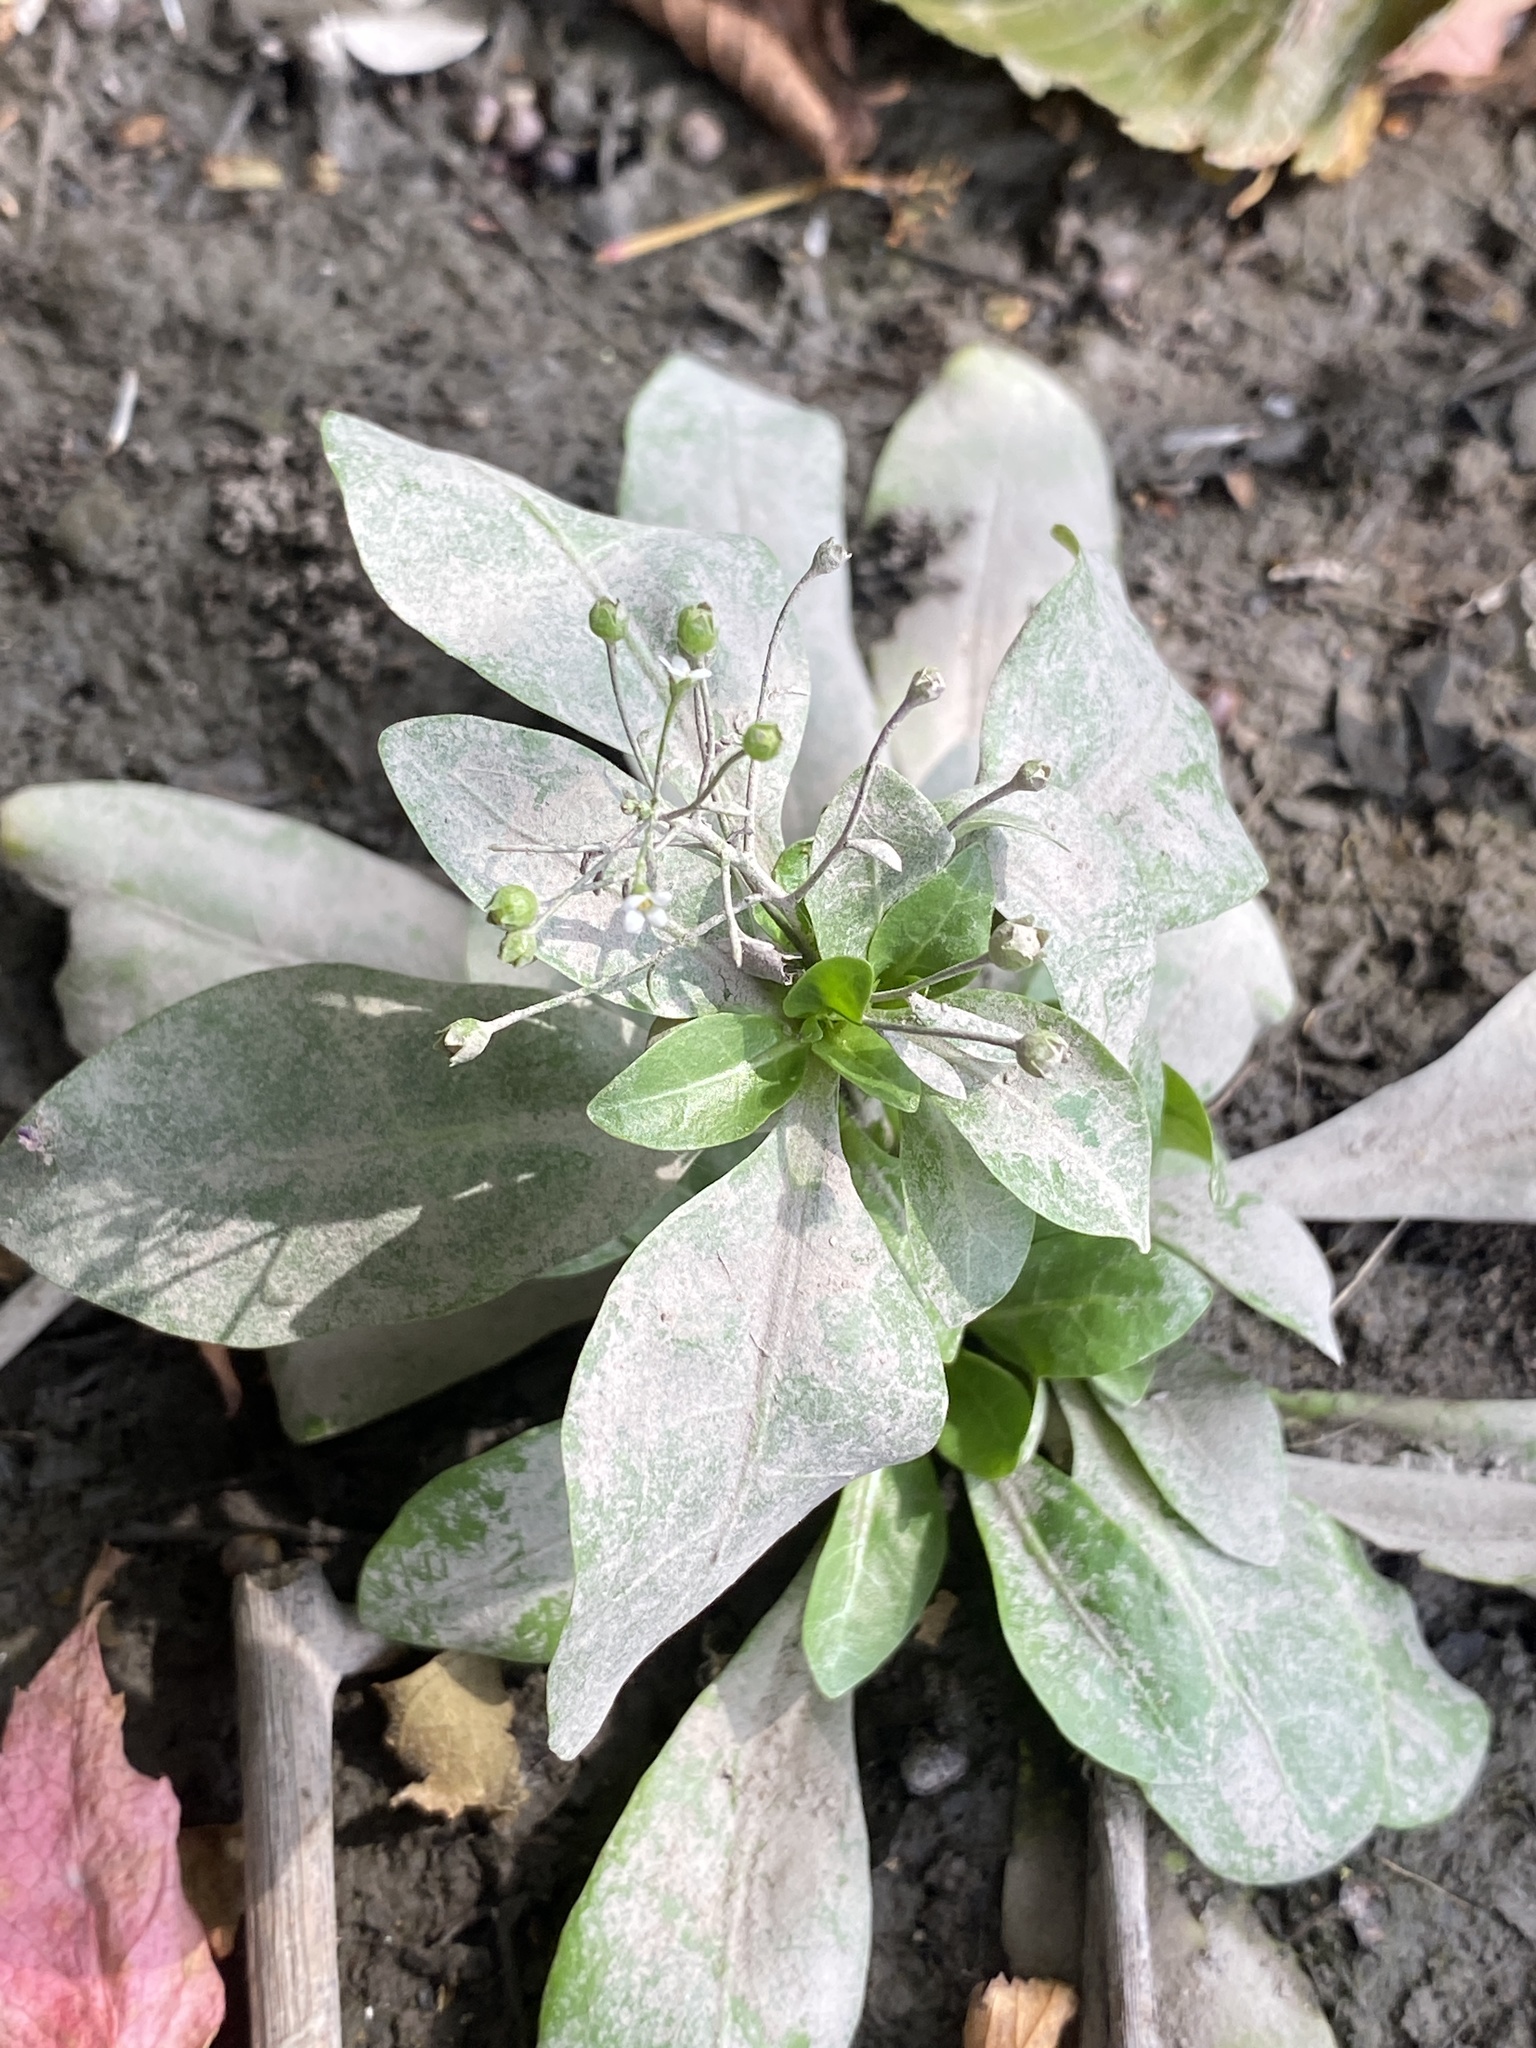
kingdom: Plantae
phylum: Tracheophyta
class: Magnoliopsida
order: Ericales
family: Primulaceae
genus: Samolus
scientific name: Samolus parviflorus
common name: False water pimpernel
